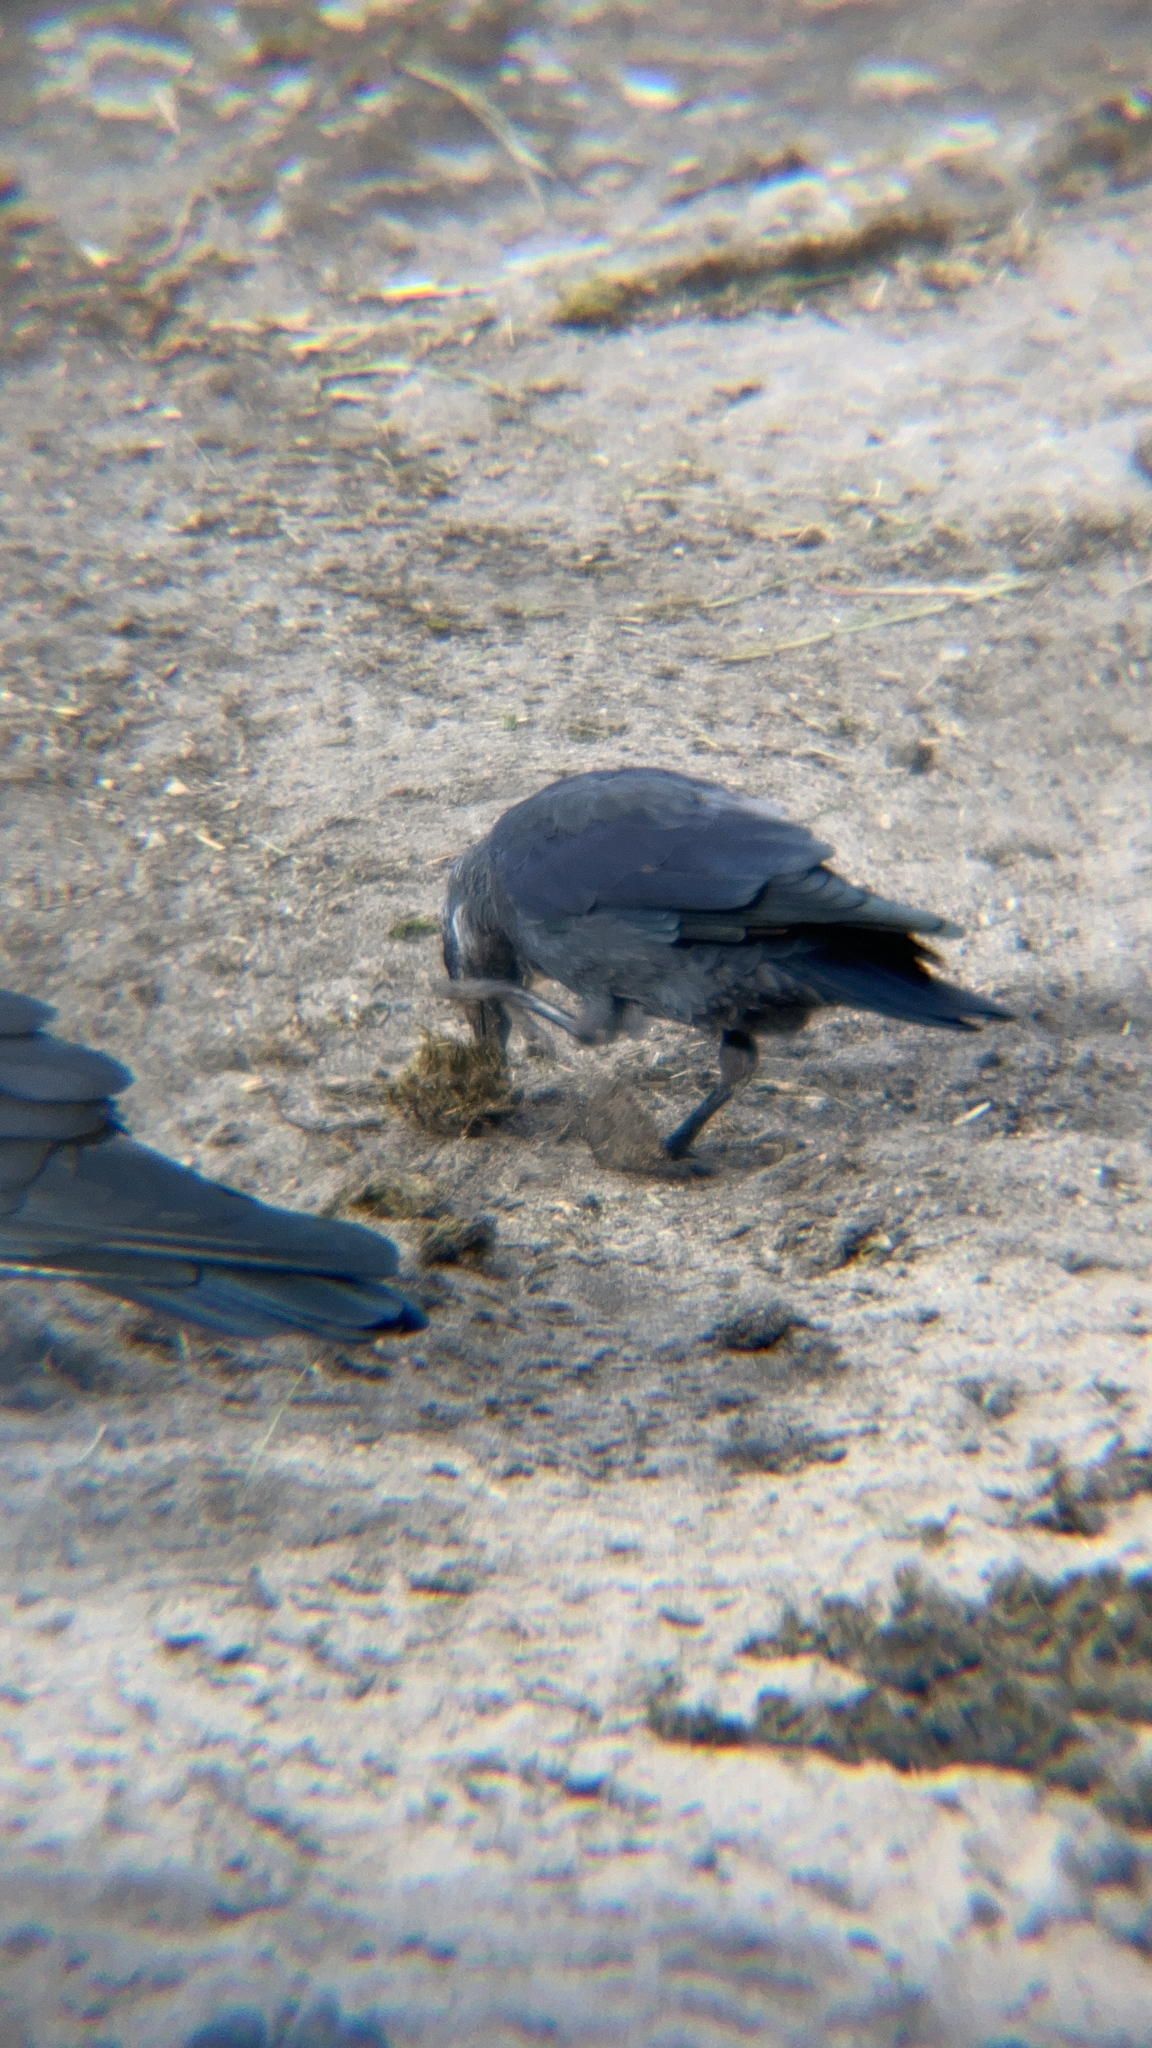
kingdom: Animalia
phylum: Chordata
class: Aves
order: Passeriformes
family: Corvidae
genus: Coloeus
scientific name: Coloeus monedula
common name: Western jackdaw
